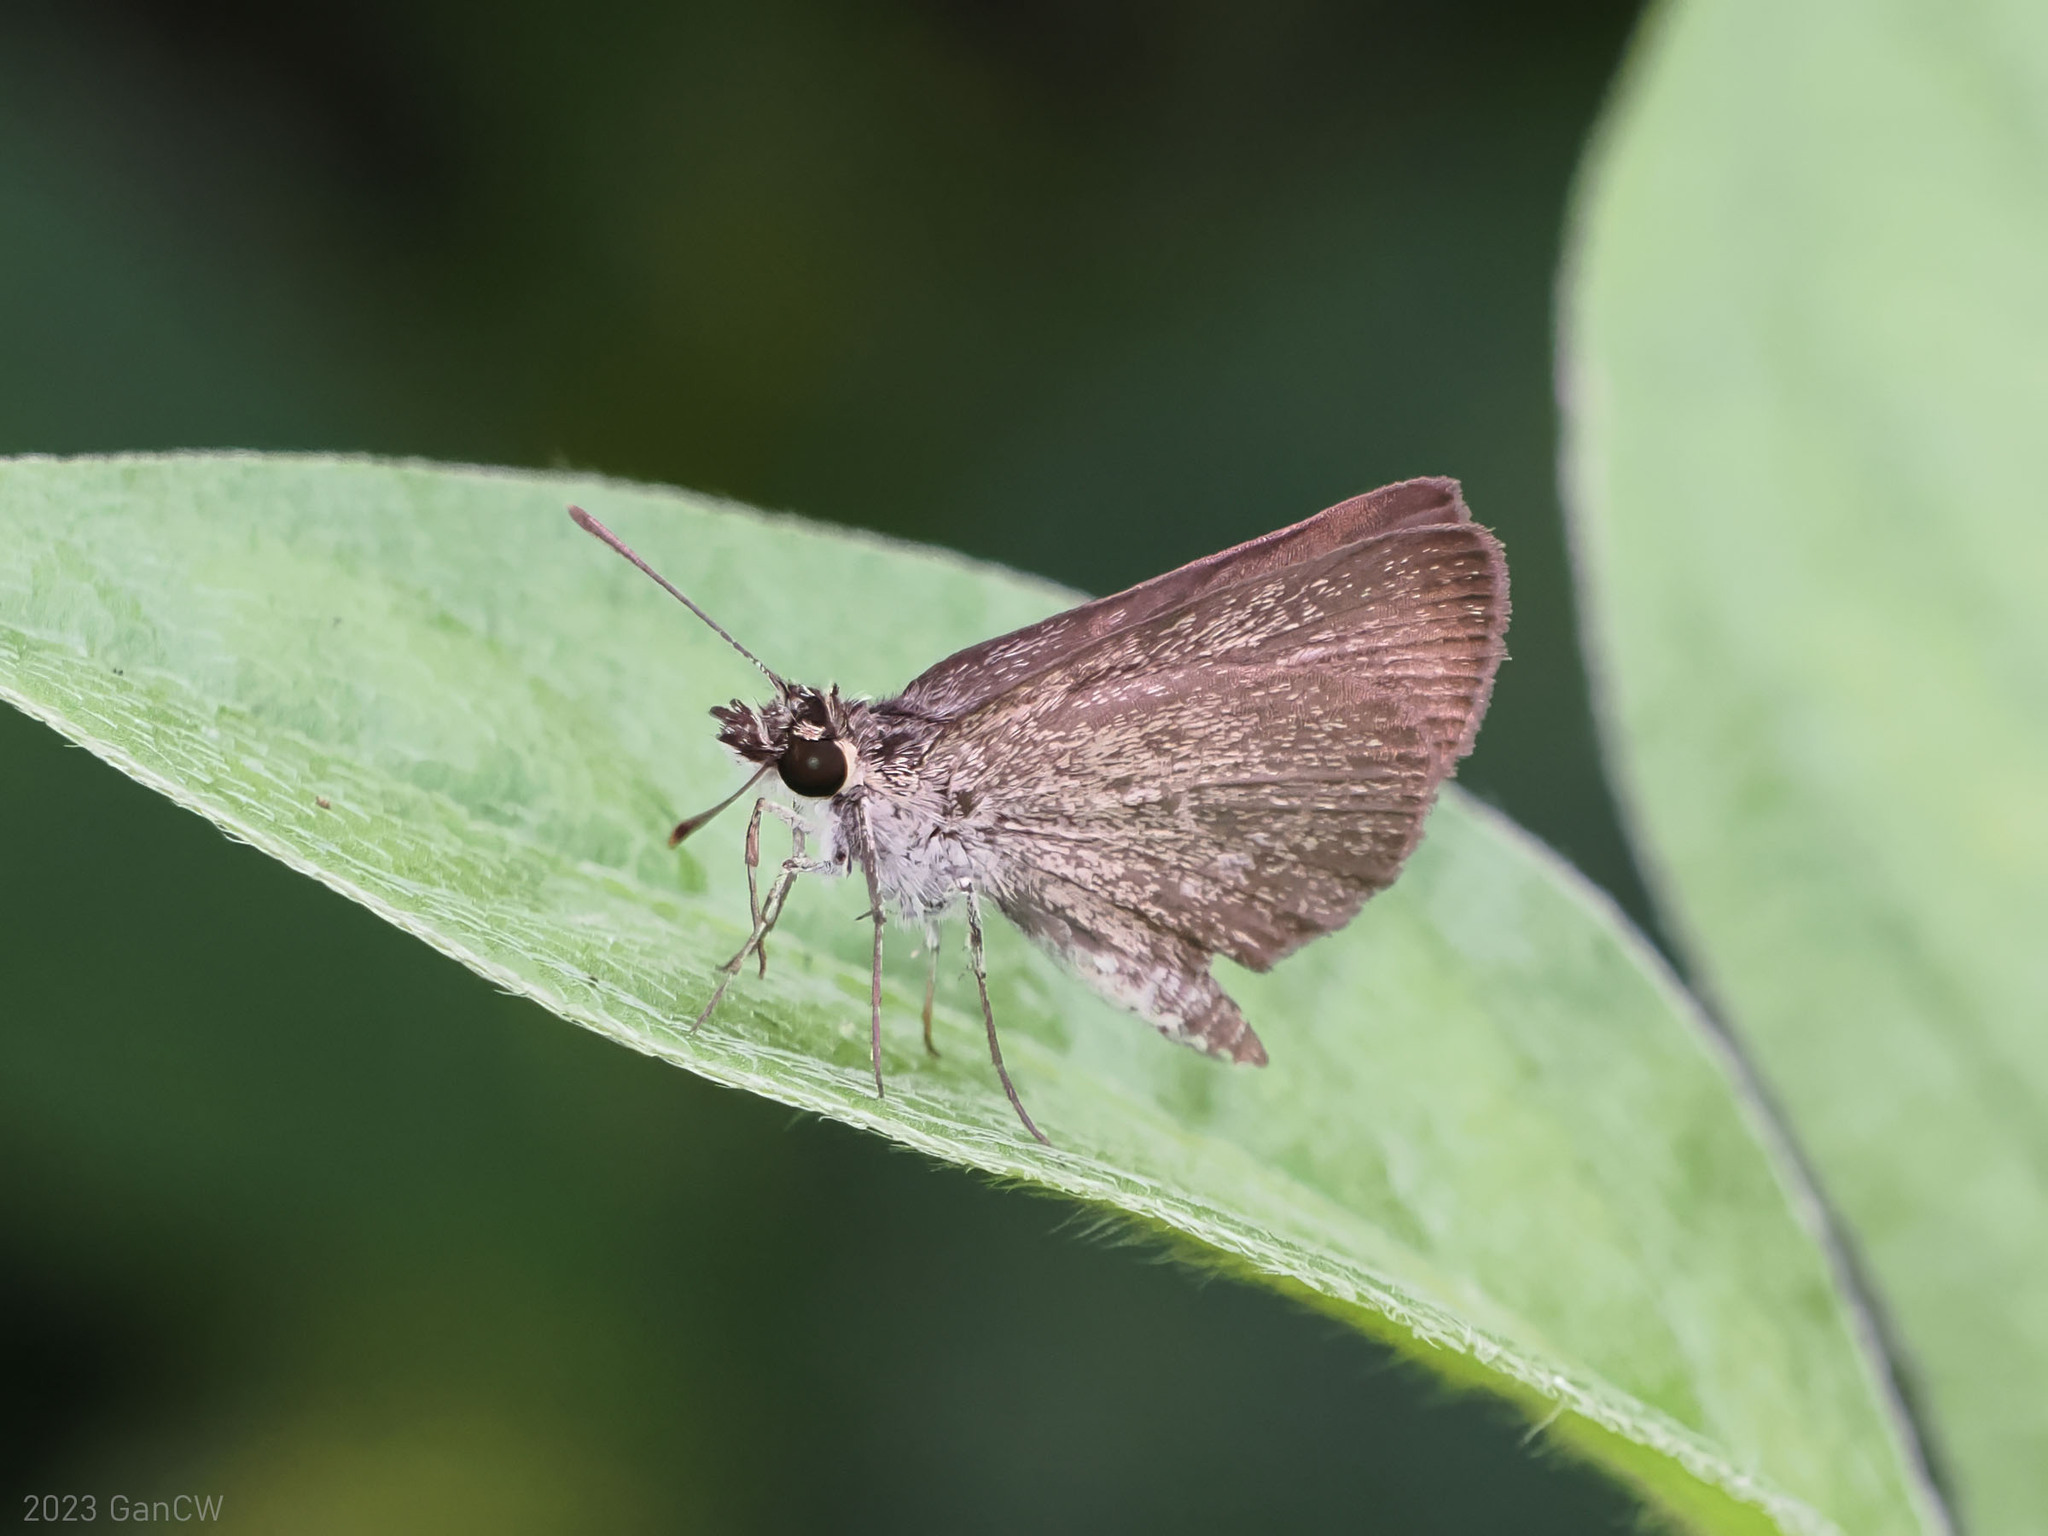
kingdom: Animalia
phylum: Arthropoda
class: Insecta
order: Lepidoptera
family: Hesperiidae
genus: Aeromachus
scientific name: Aeromachus plumbeola
